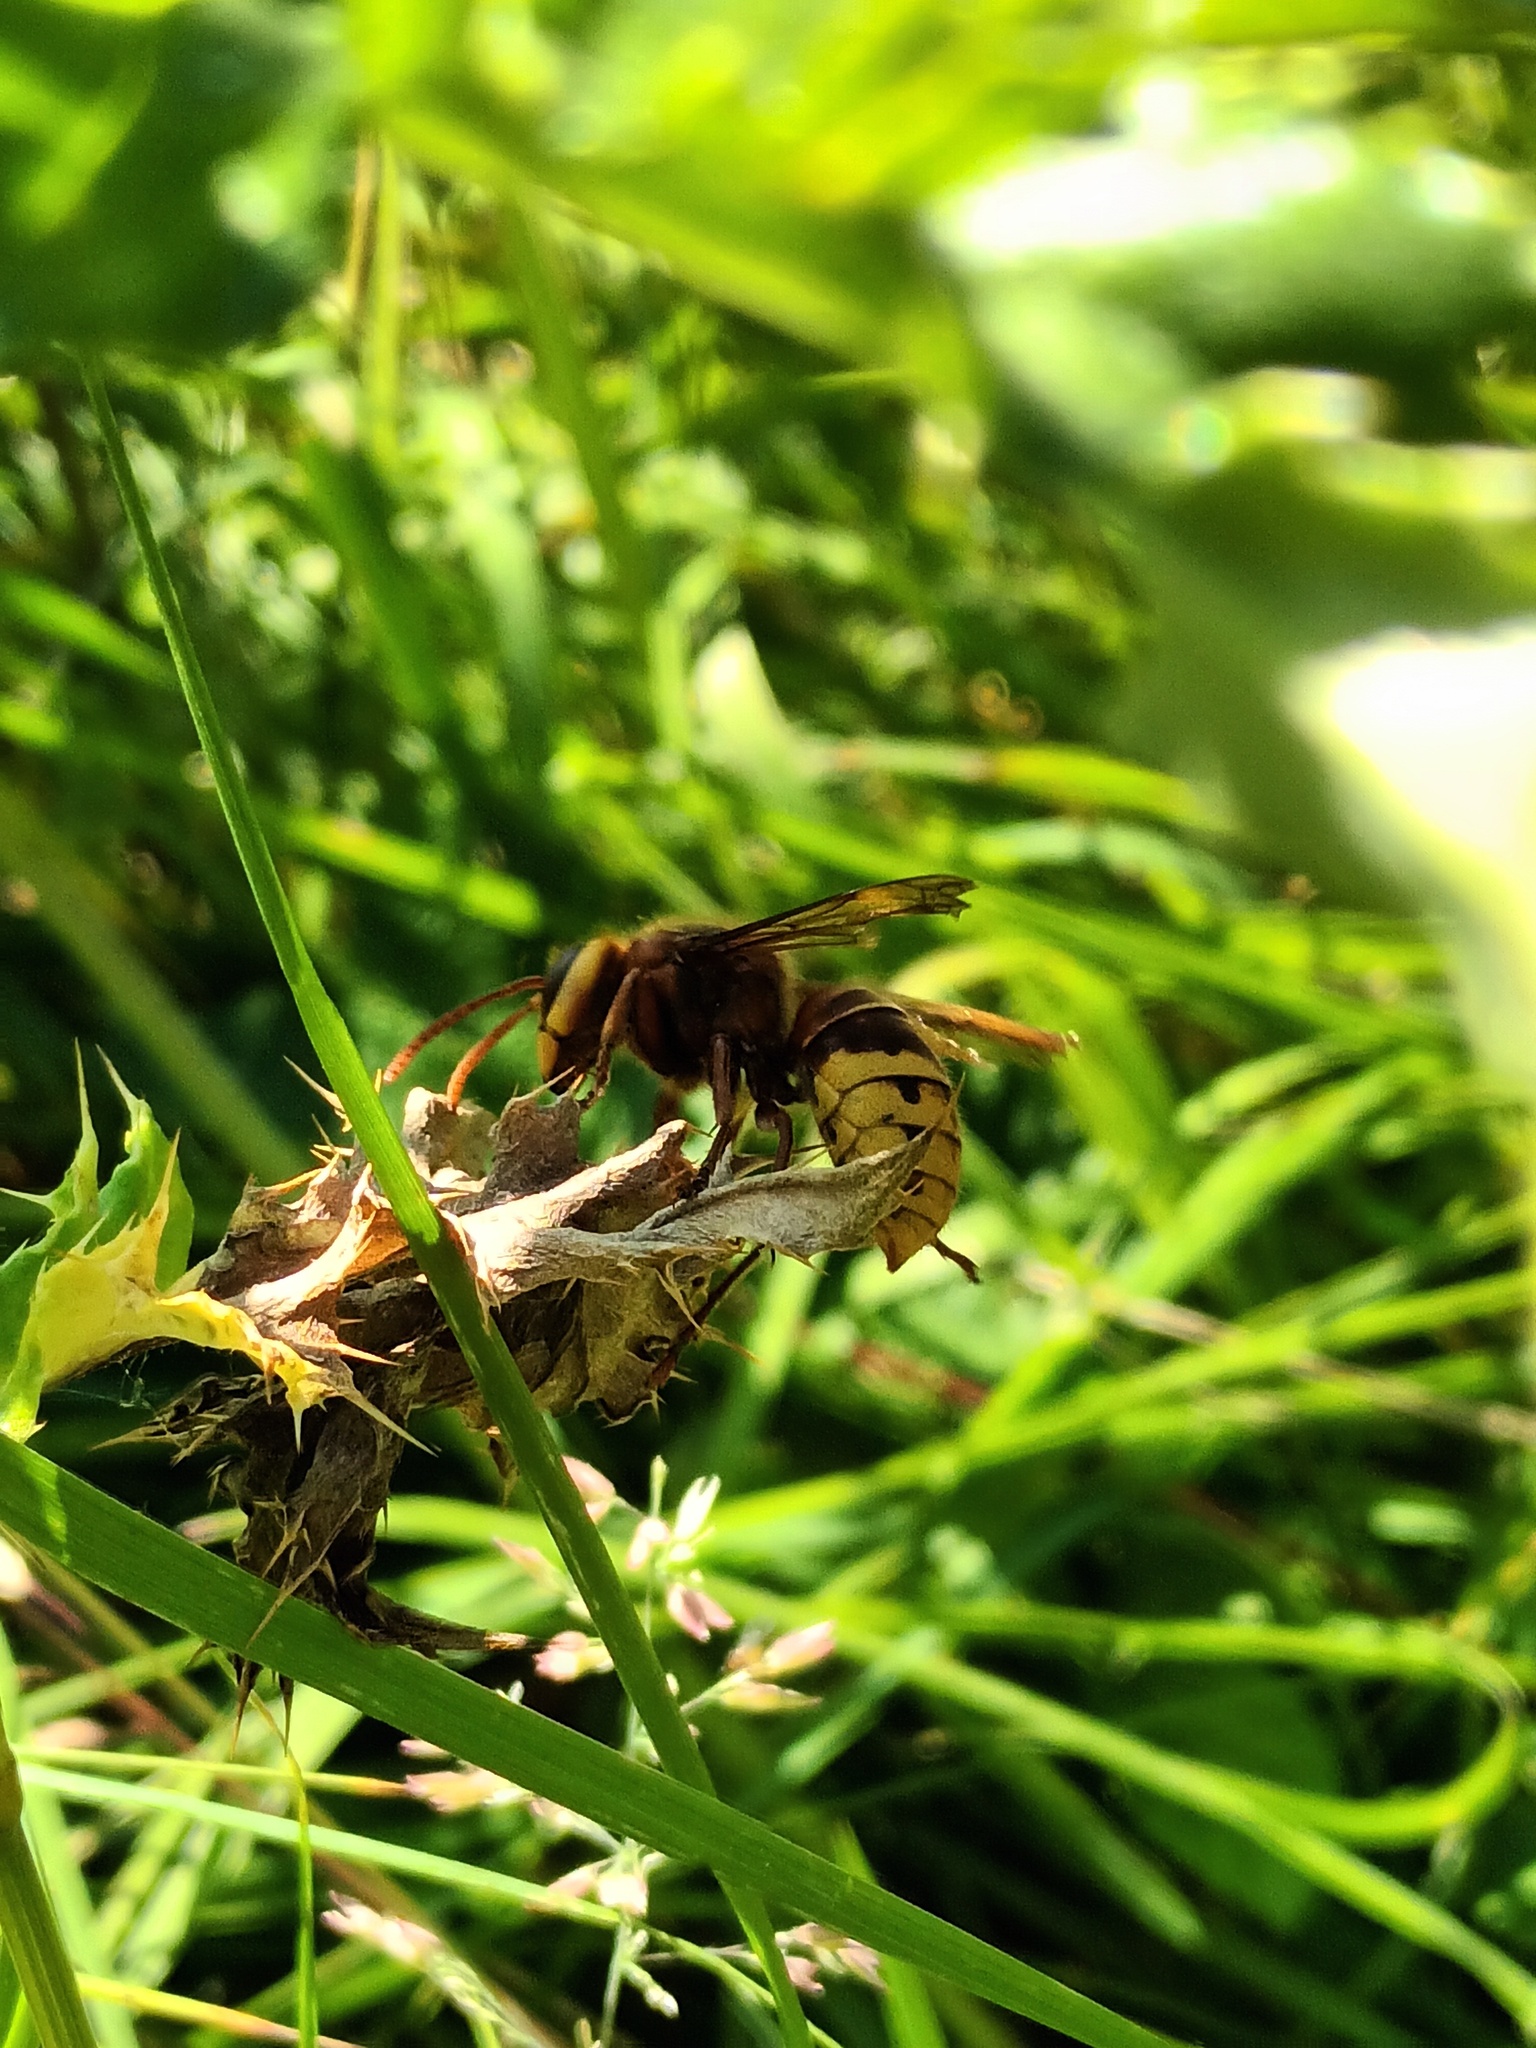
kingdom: Animalia
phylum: Arthropoda
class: Insecta
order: Hymenoptera
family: Vespidae
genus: Vespa
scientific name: Vespa crabro
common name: Hornet
